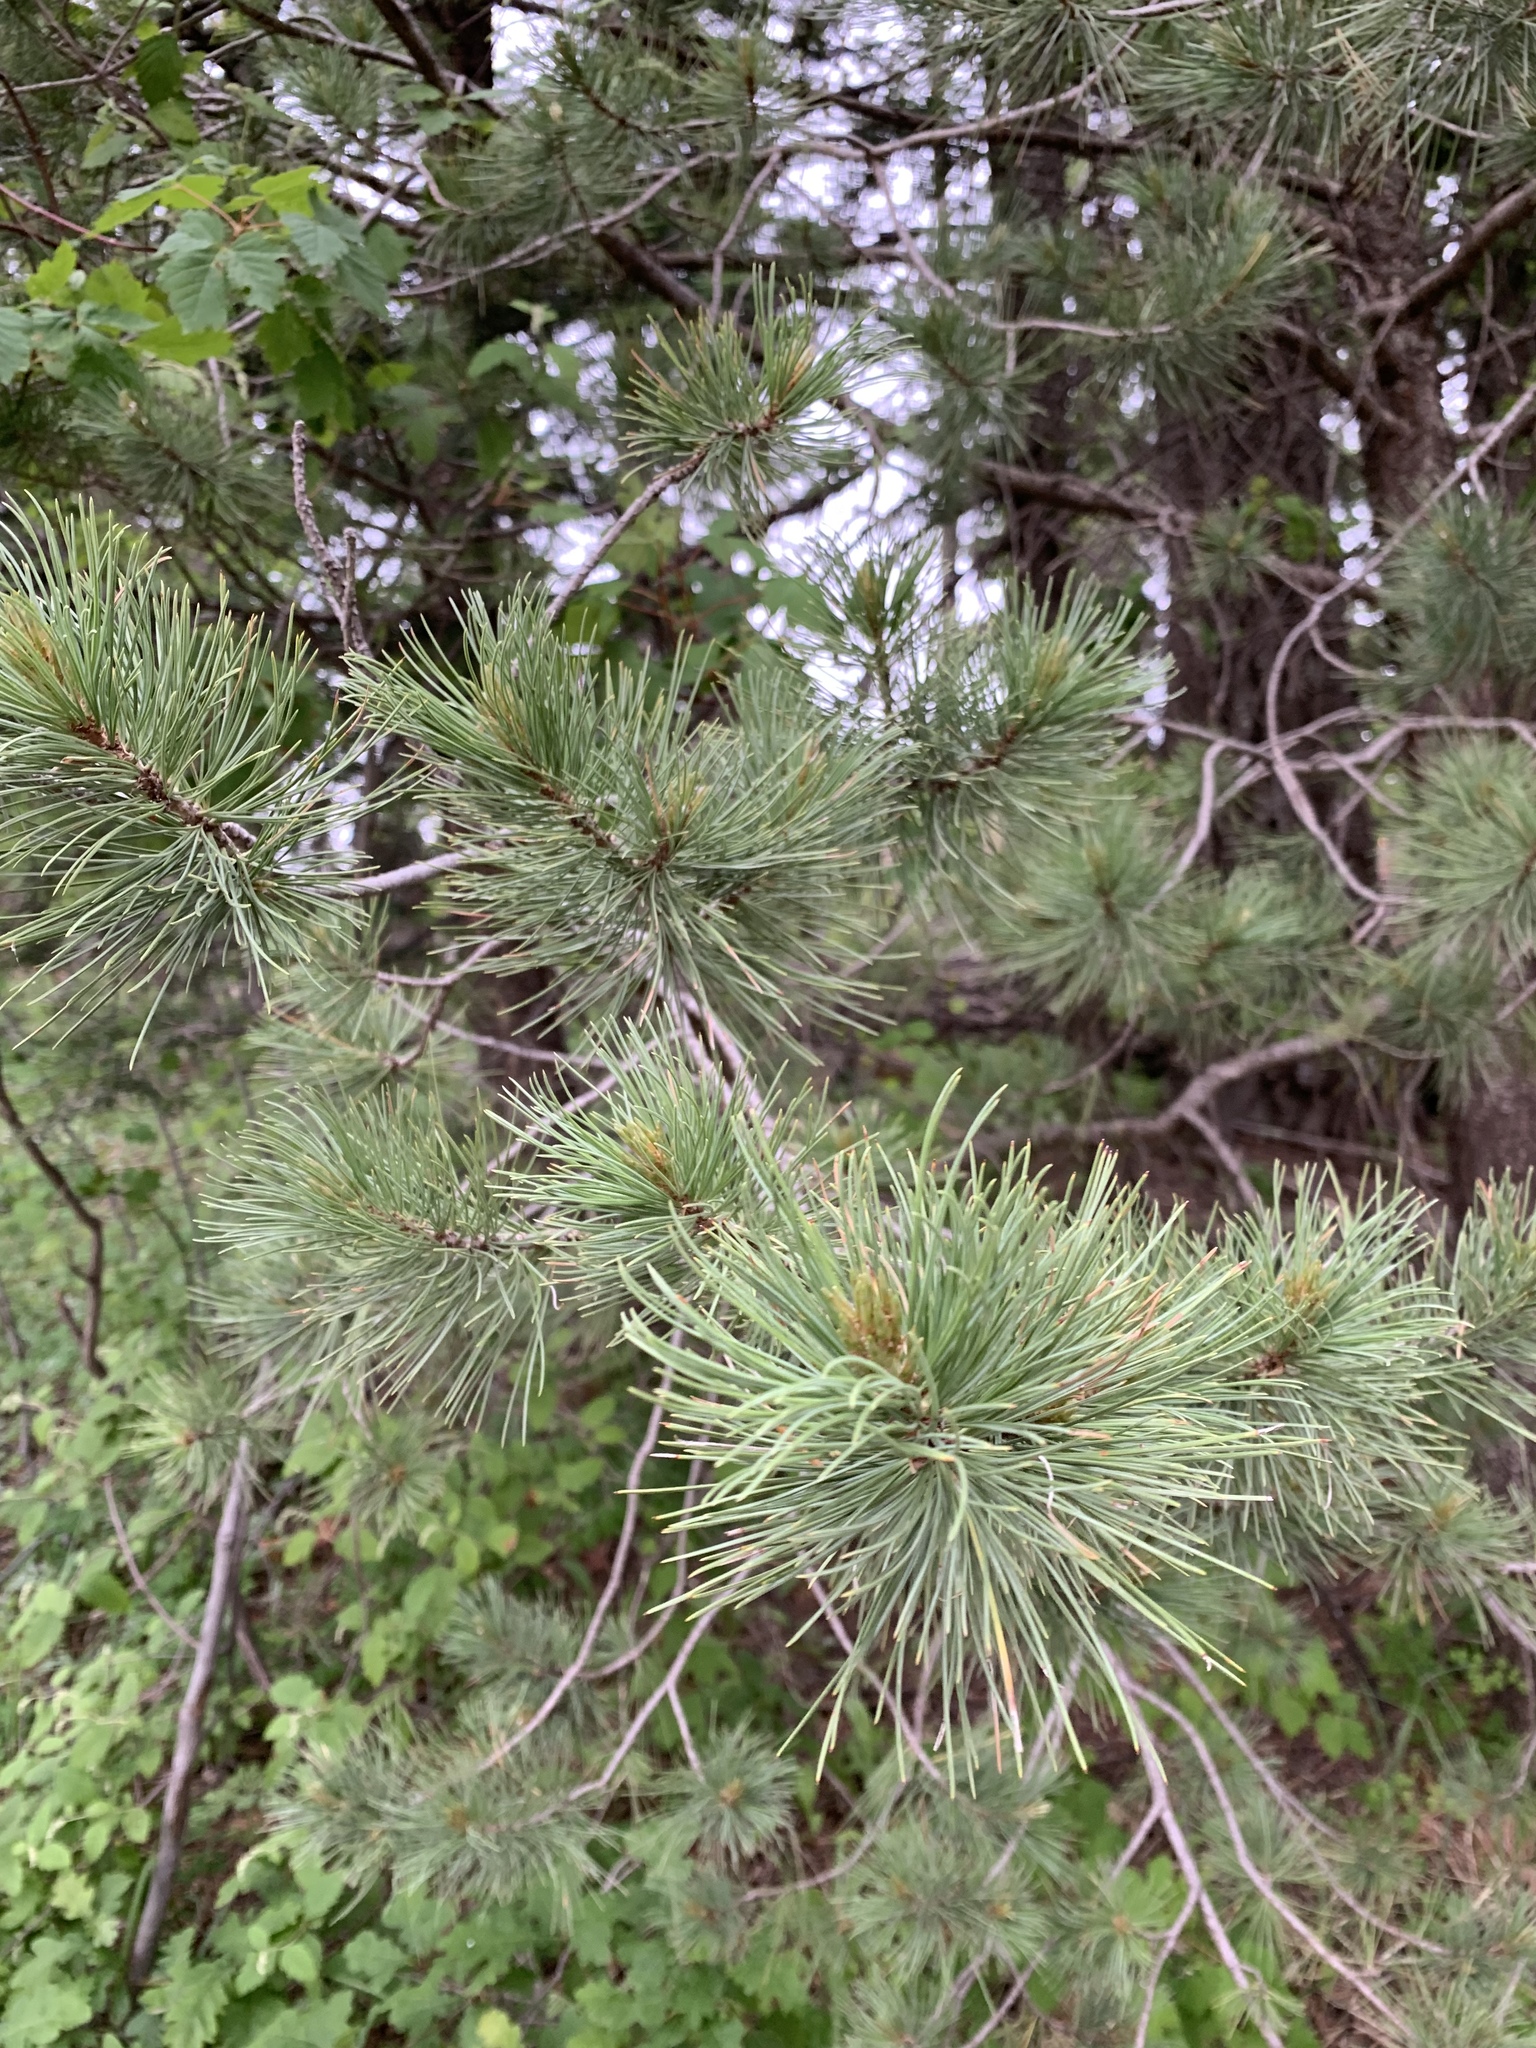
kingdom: Plantae
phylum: Tracheophyta
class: Pinopsida
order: Pinales
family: Pinaceae
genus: Pinus
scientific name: Pinus strobiformis
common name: Southwestern white pine
